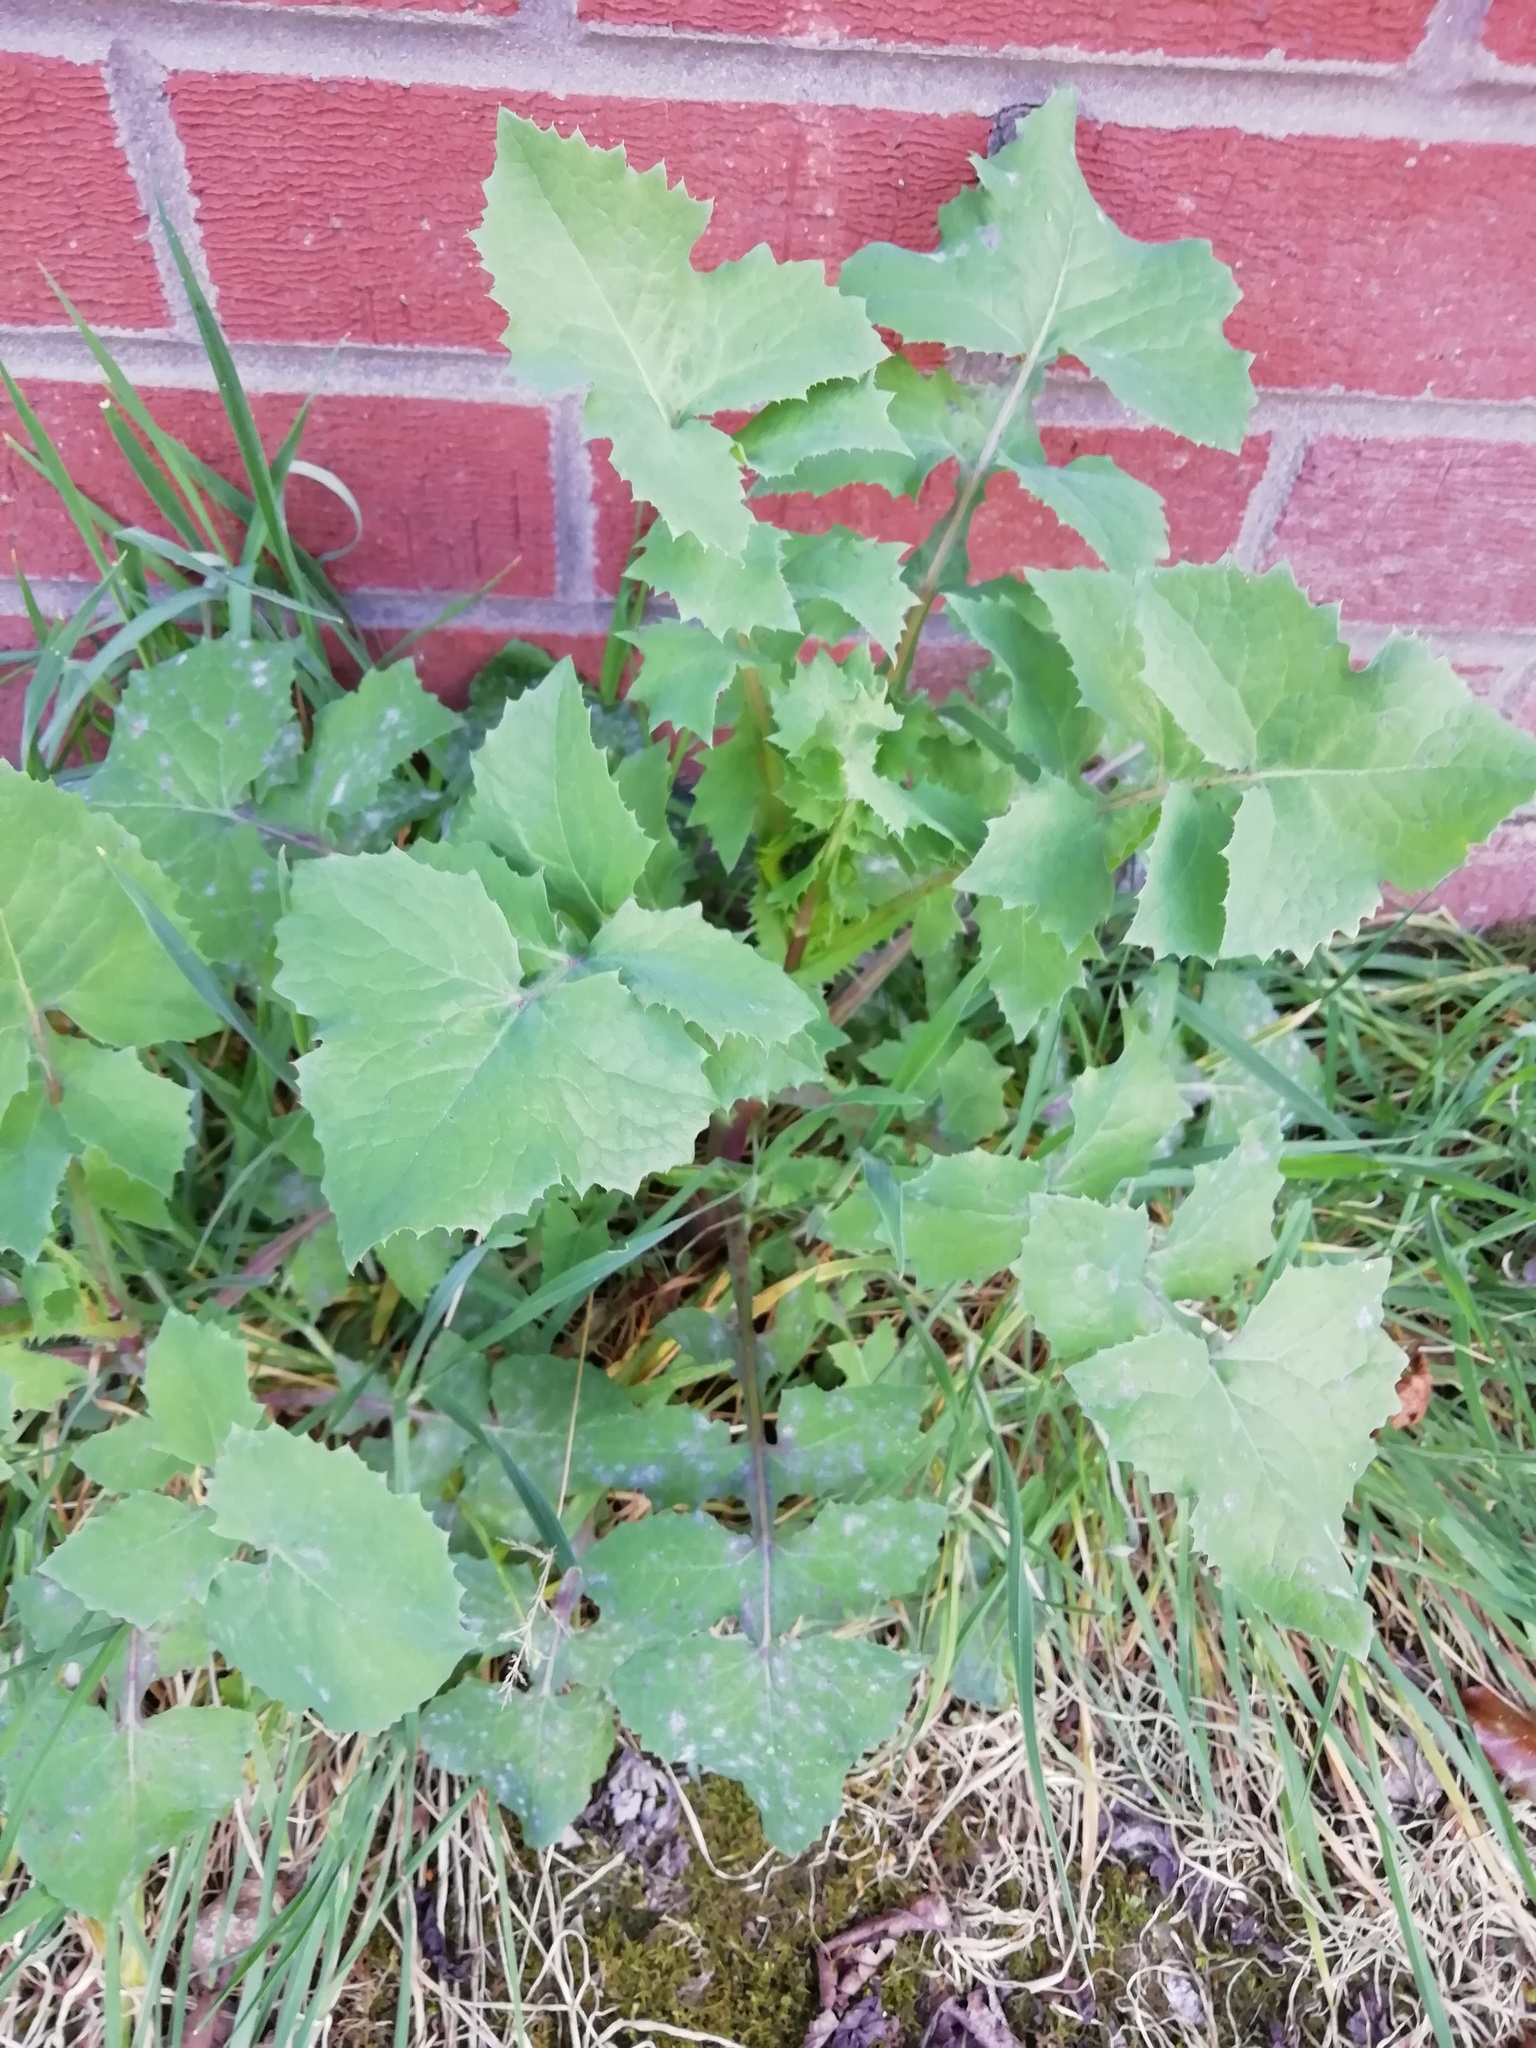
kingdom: Plantae
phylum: Tracheophyta
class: Magnoliopsida
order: Asterales
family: Asteraceae
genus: Sonchus
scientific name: Sonchus oleraceus
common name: Common sowthistle
